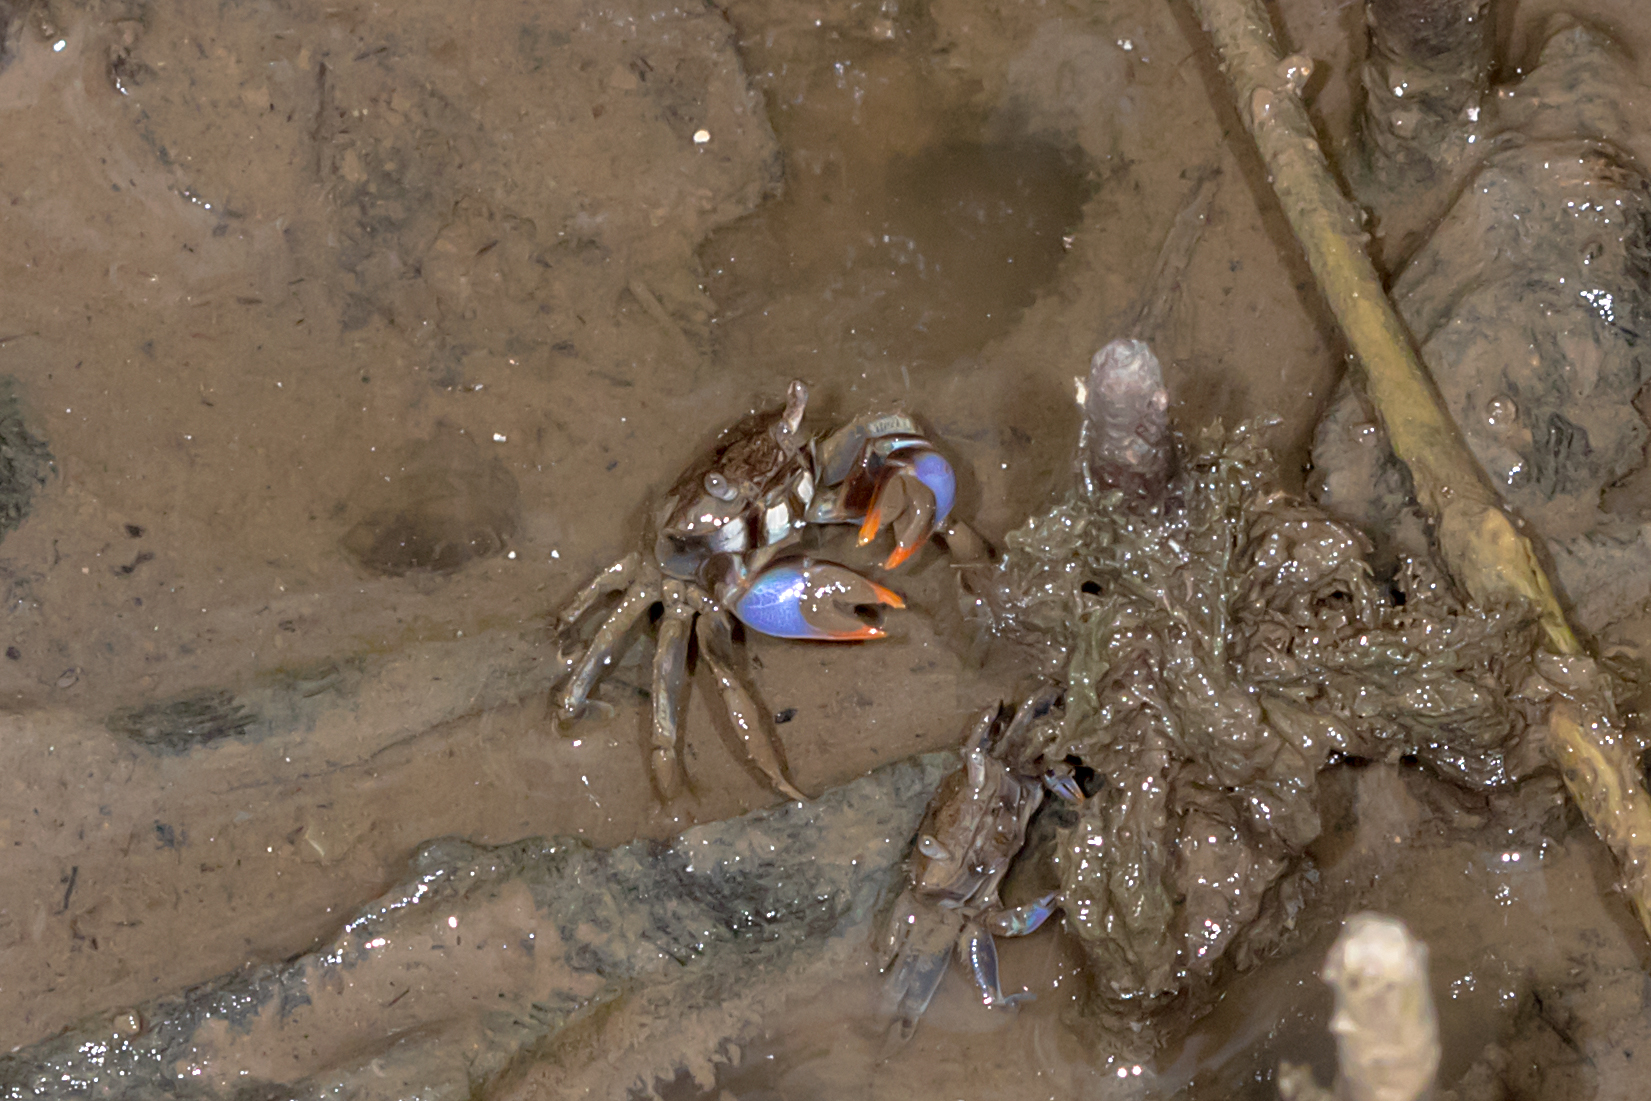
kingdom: Animalia
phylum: Arthropoda
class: Malacostraca
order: Decapoda
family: Macrophthalmidae
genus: Australoplax
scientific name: Australoplax tridentata
